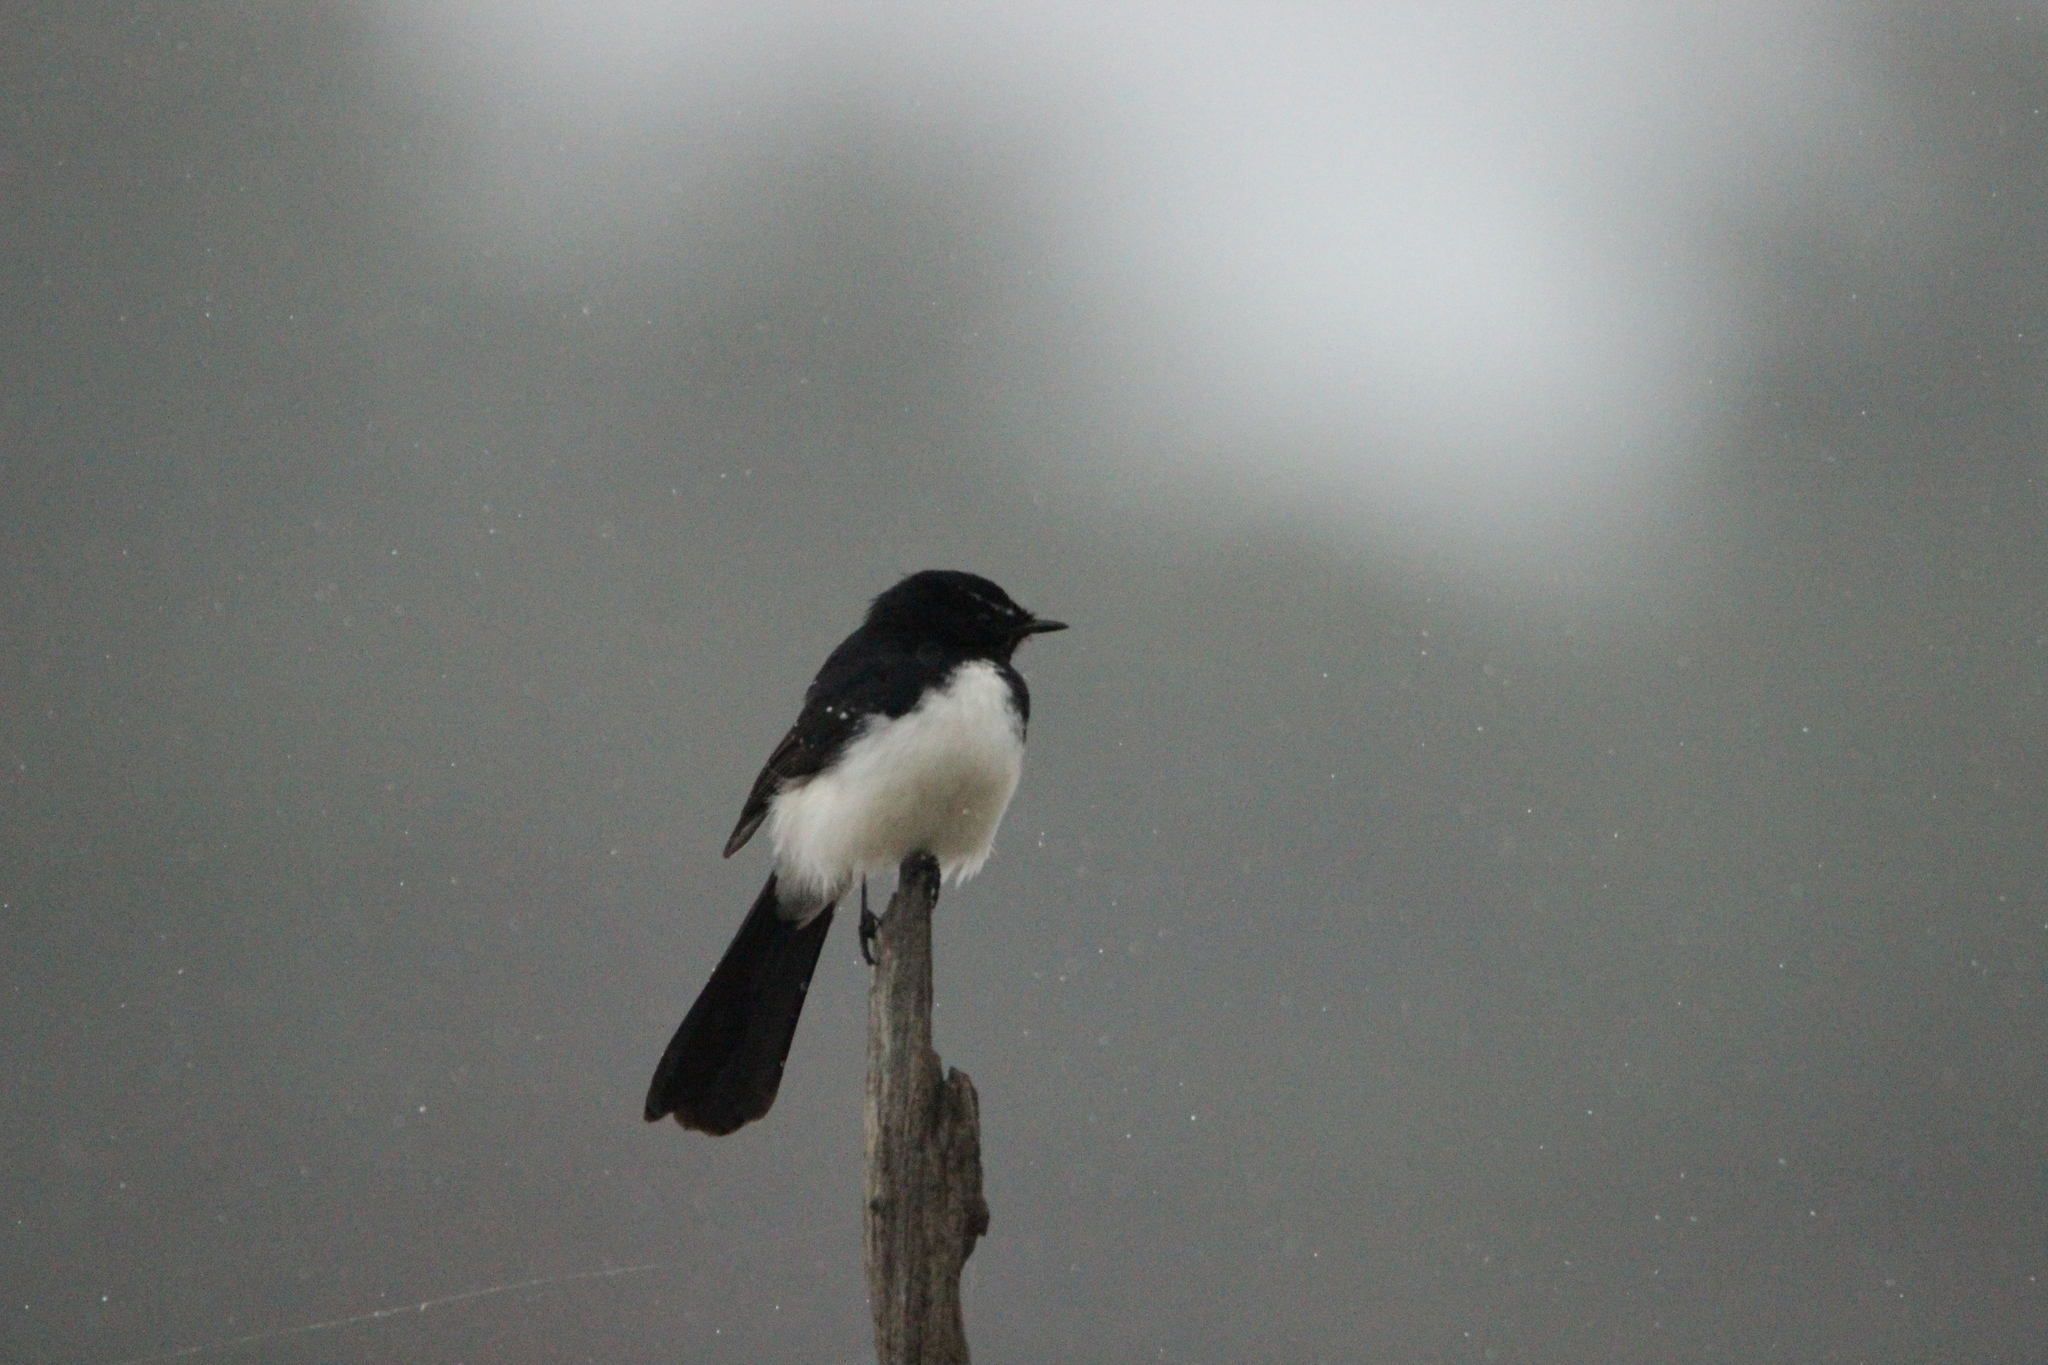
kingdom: Animalia
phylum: Chordata
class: Aves
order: Passeriformes
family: Rhipiduridae
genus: Rhipidura
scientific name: Rhipidura leucophrys
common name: Willie wagtail
